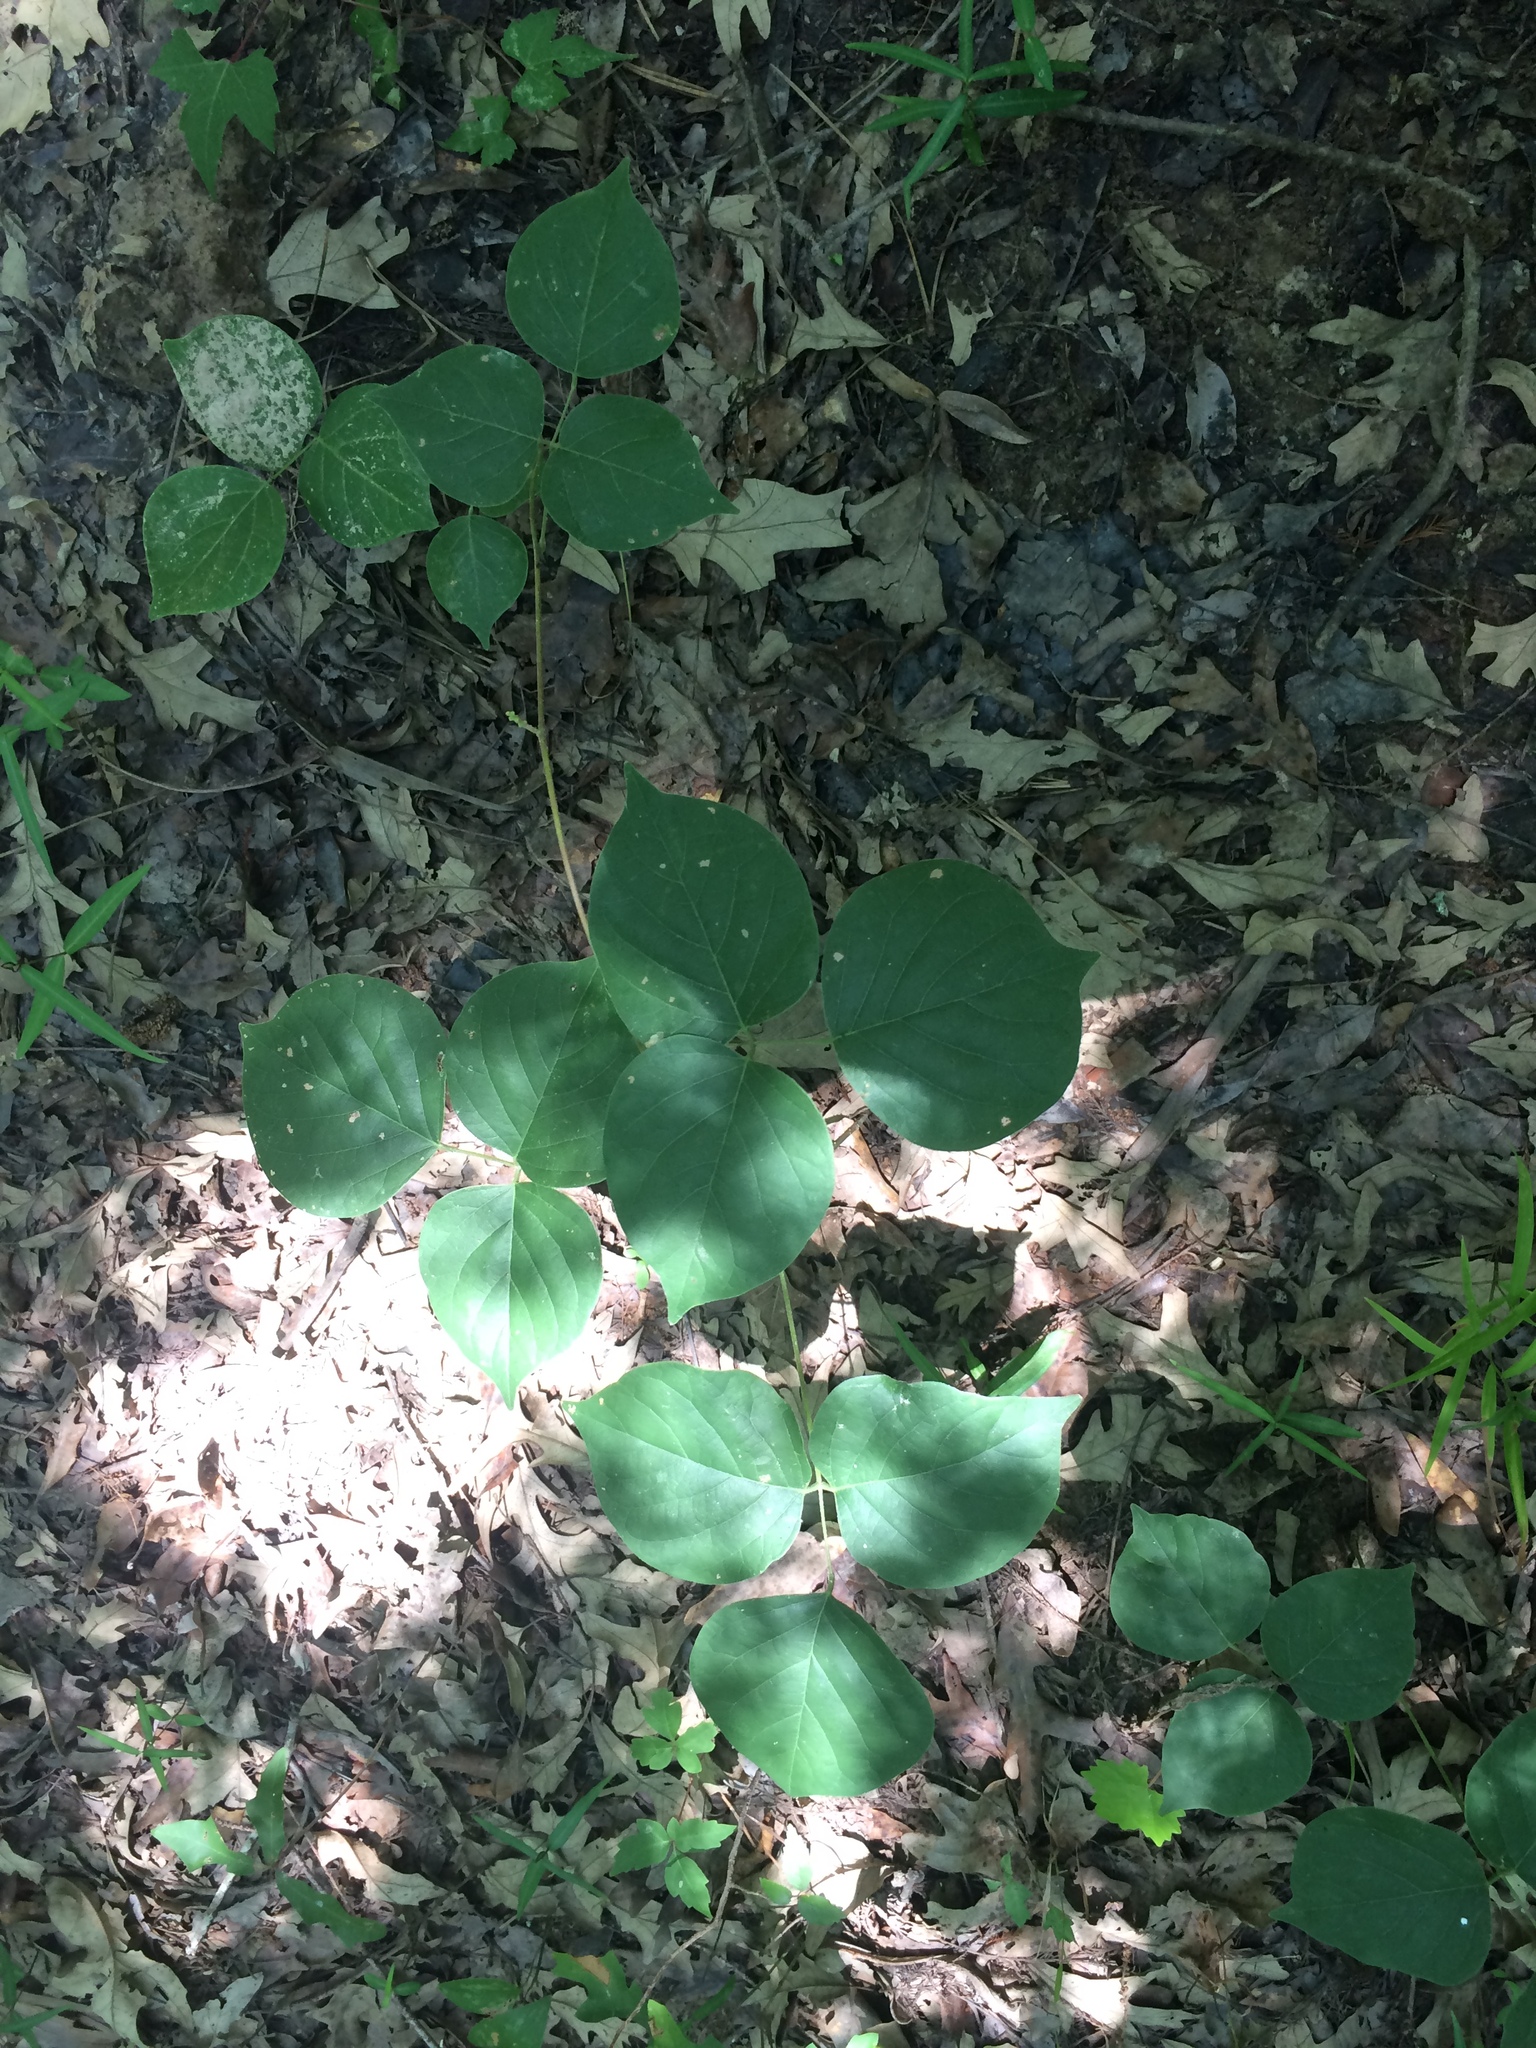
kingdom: Plantae
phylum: Tracheophyta
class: Magnoliopsida
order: Fabales
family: Fabaceae
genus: Lackeya
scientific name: Lackeya multiflora
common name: Boykin's clusterpea
